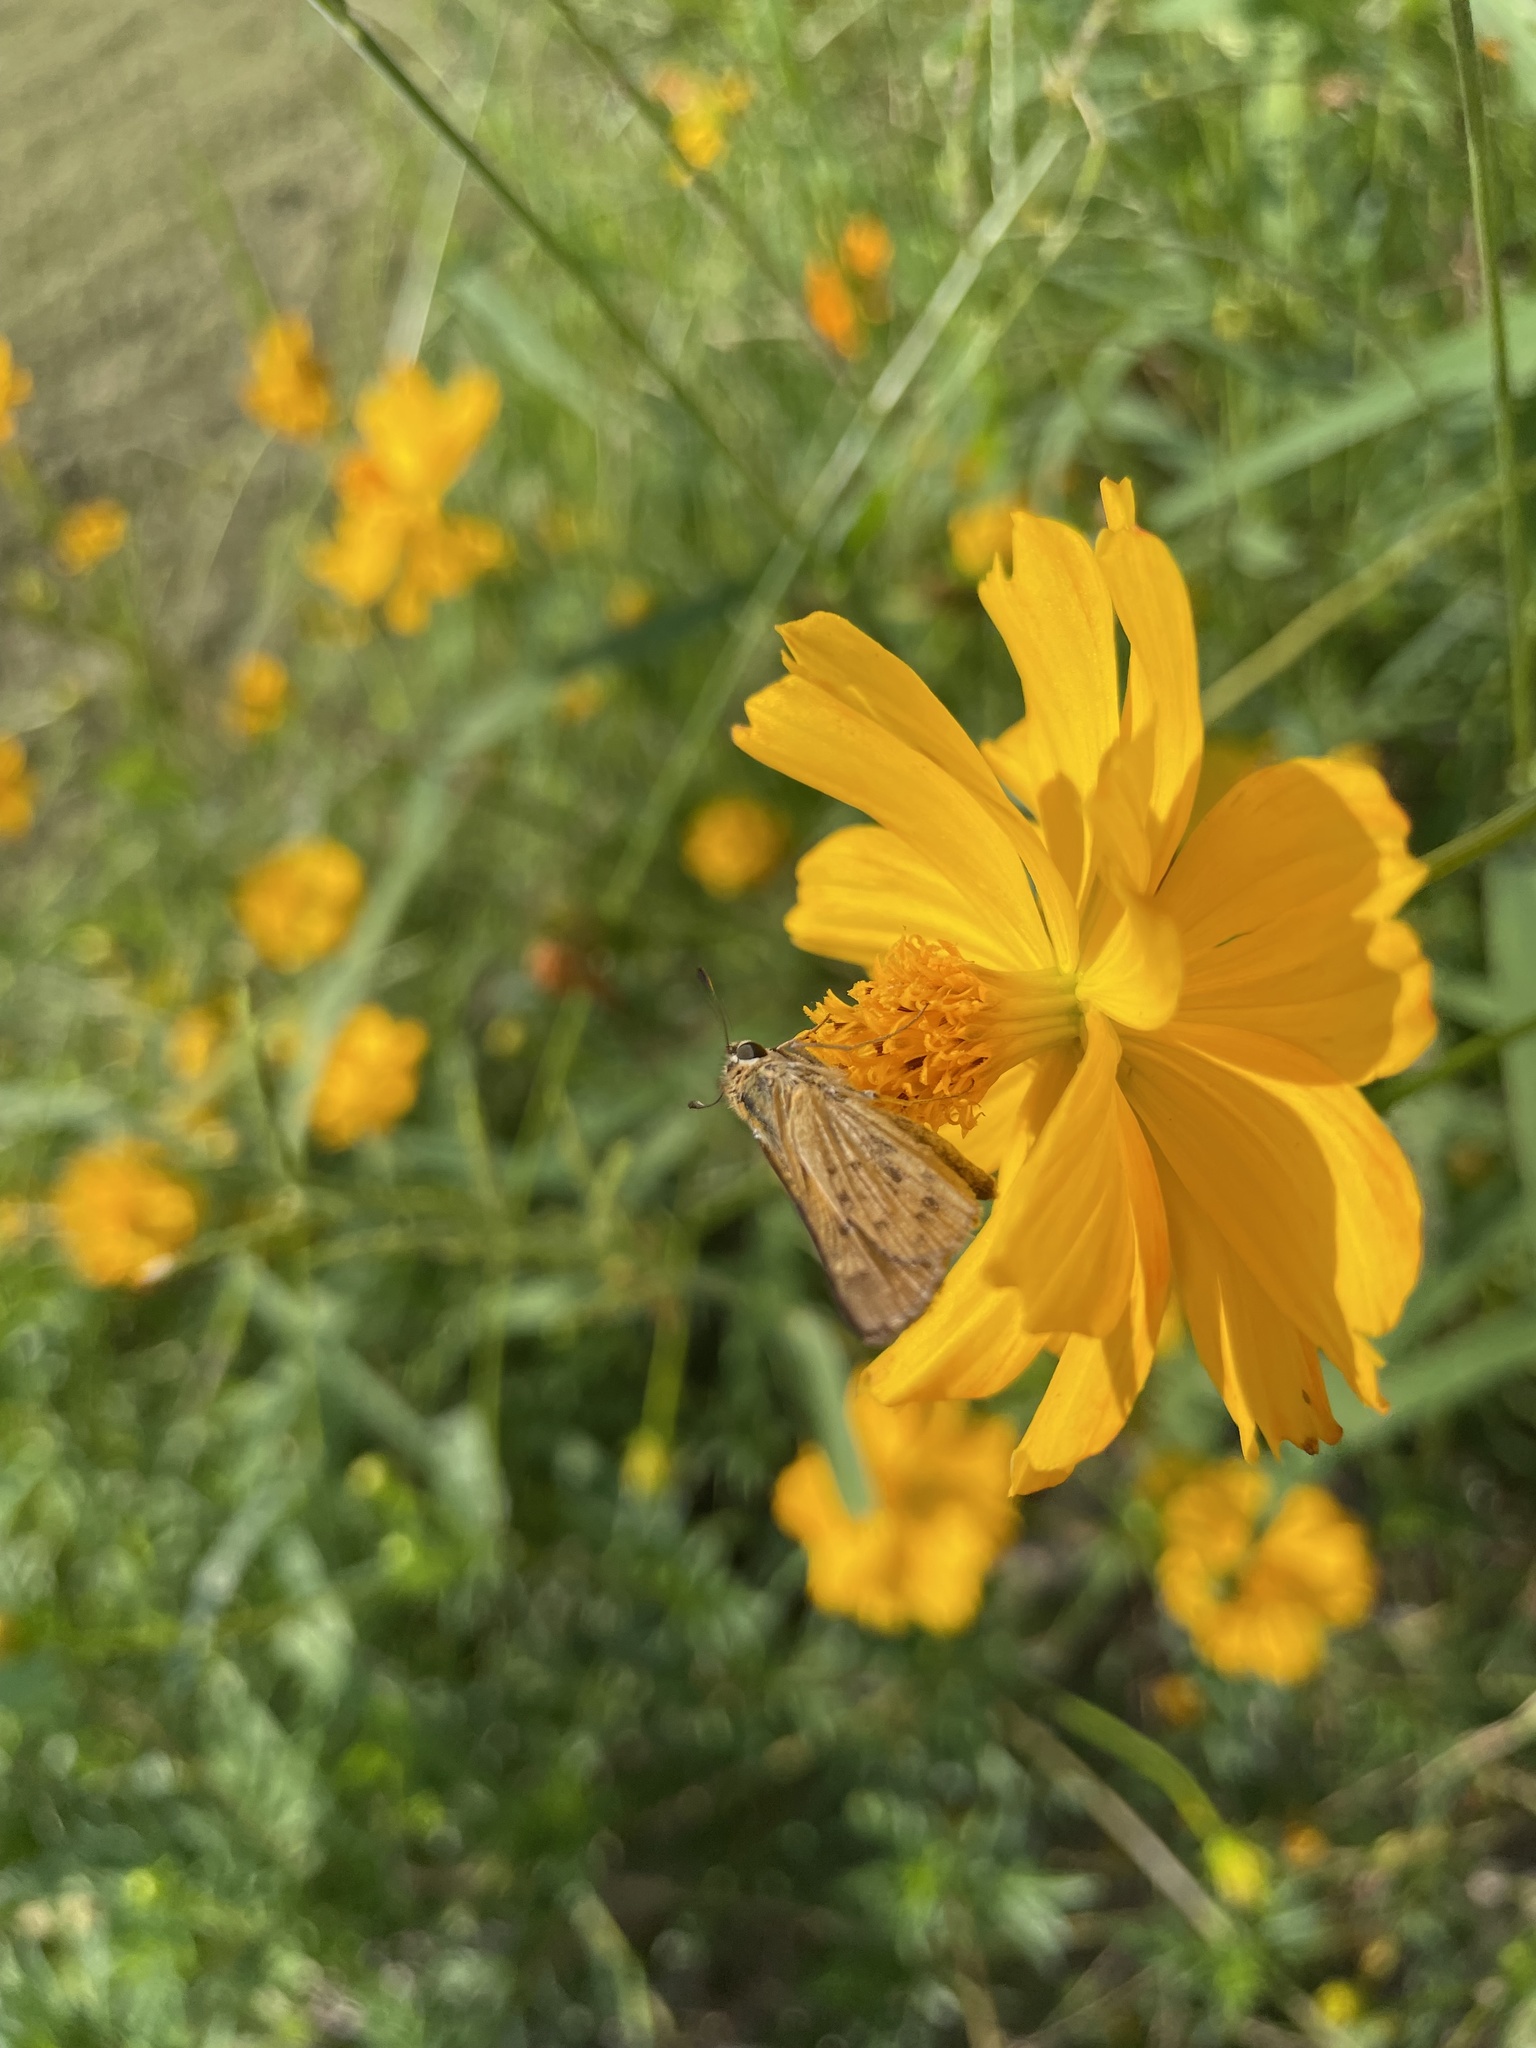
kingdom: Animalia
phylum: Arthropoda
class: Insecta
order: Lepidoptera
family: Hesperiidae
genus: Hylephila
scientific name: Hylephila phyleus
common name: Fiery skipper
